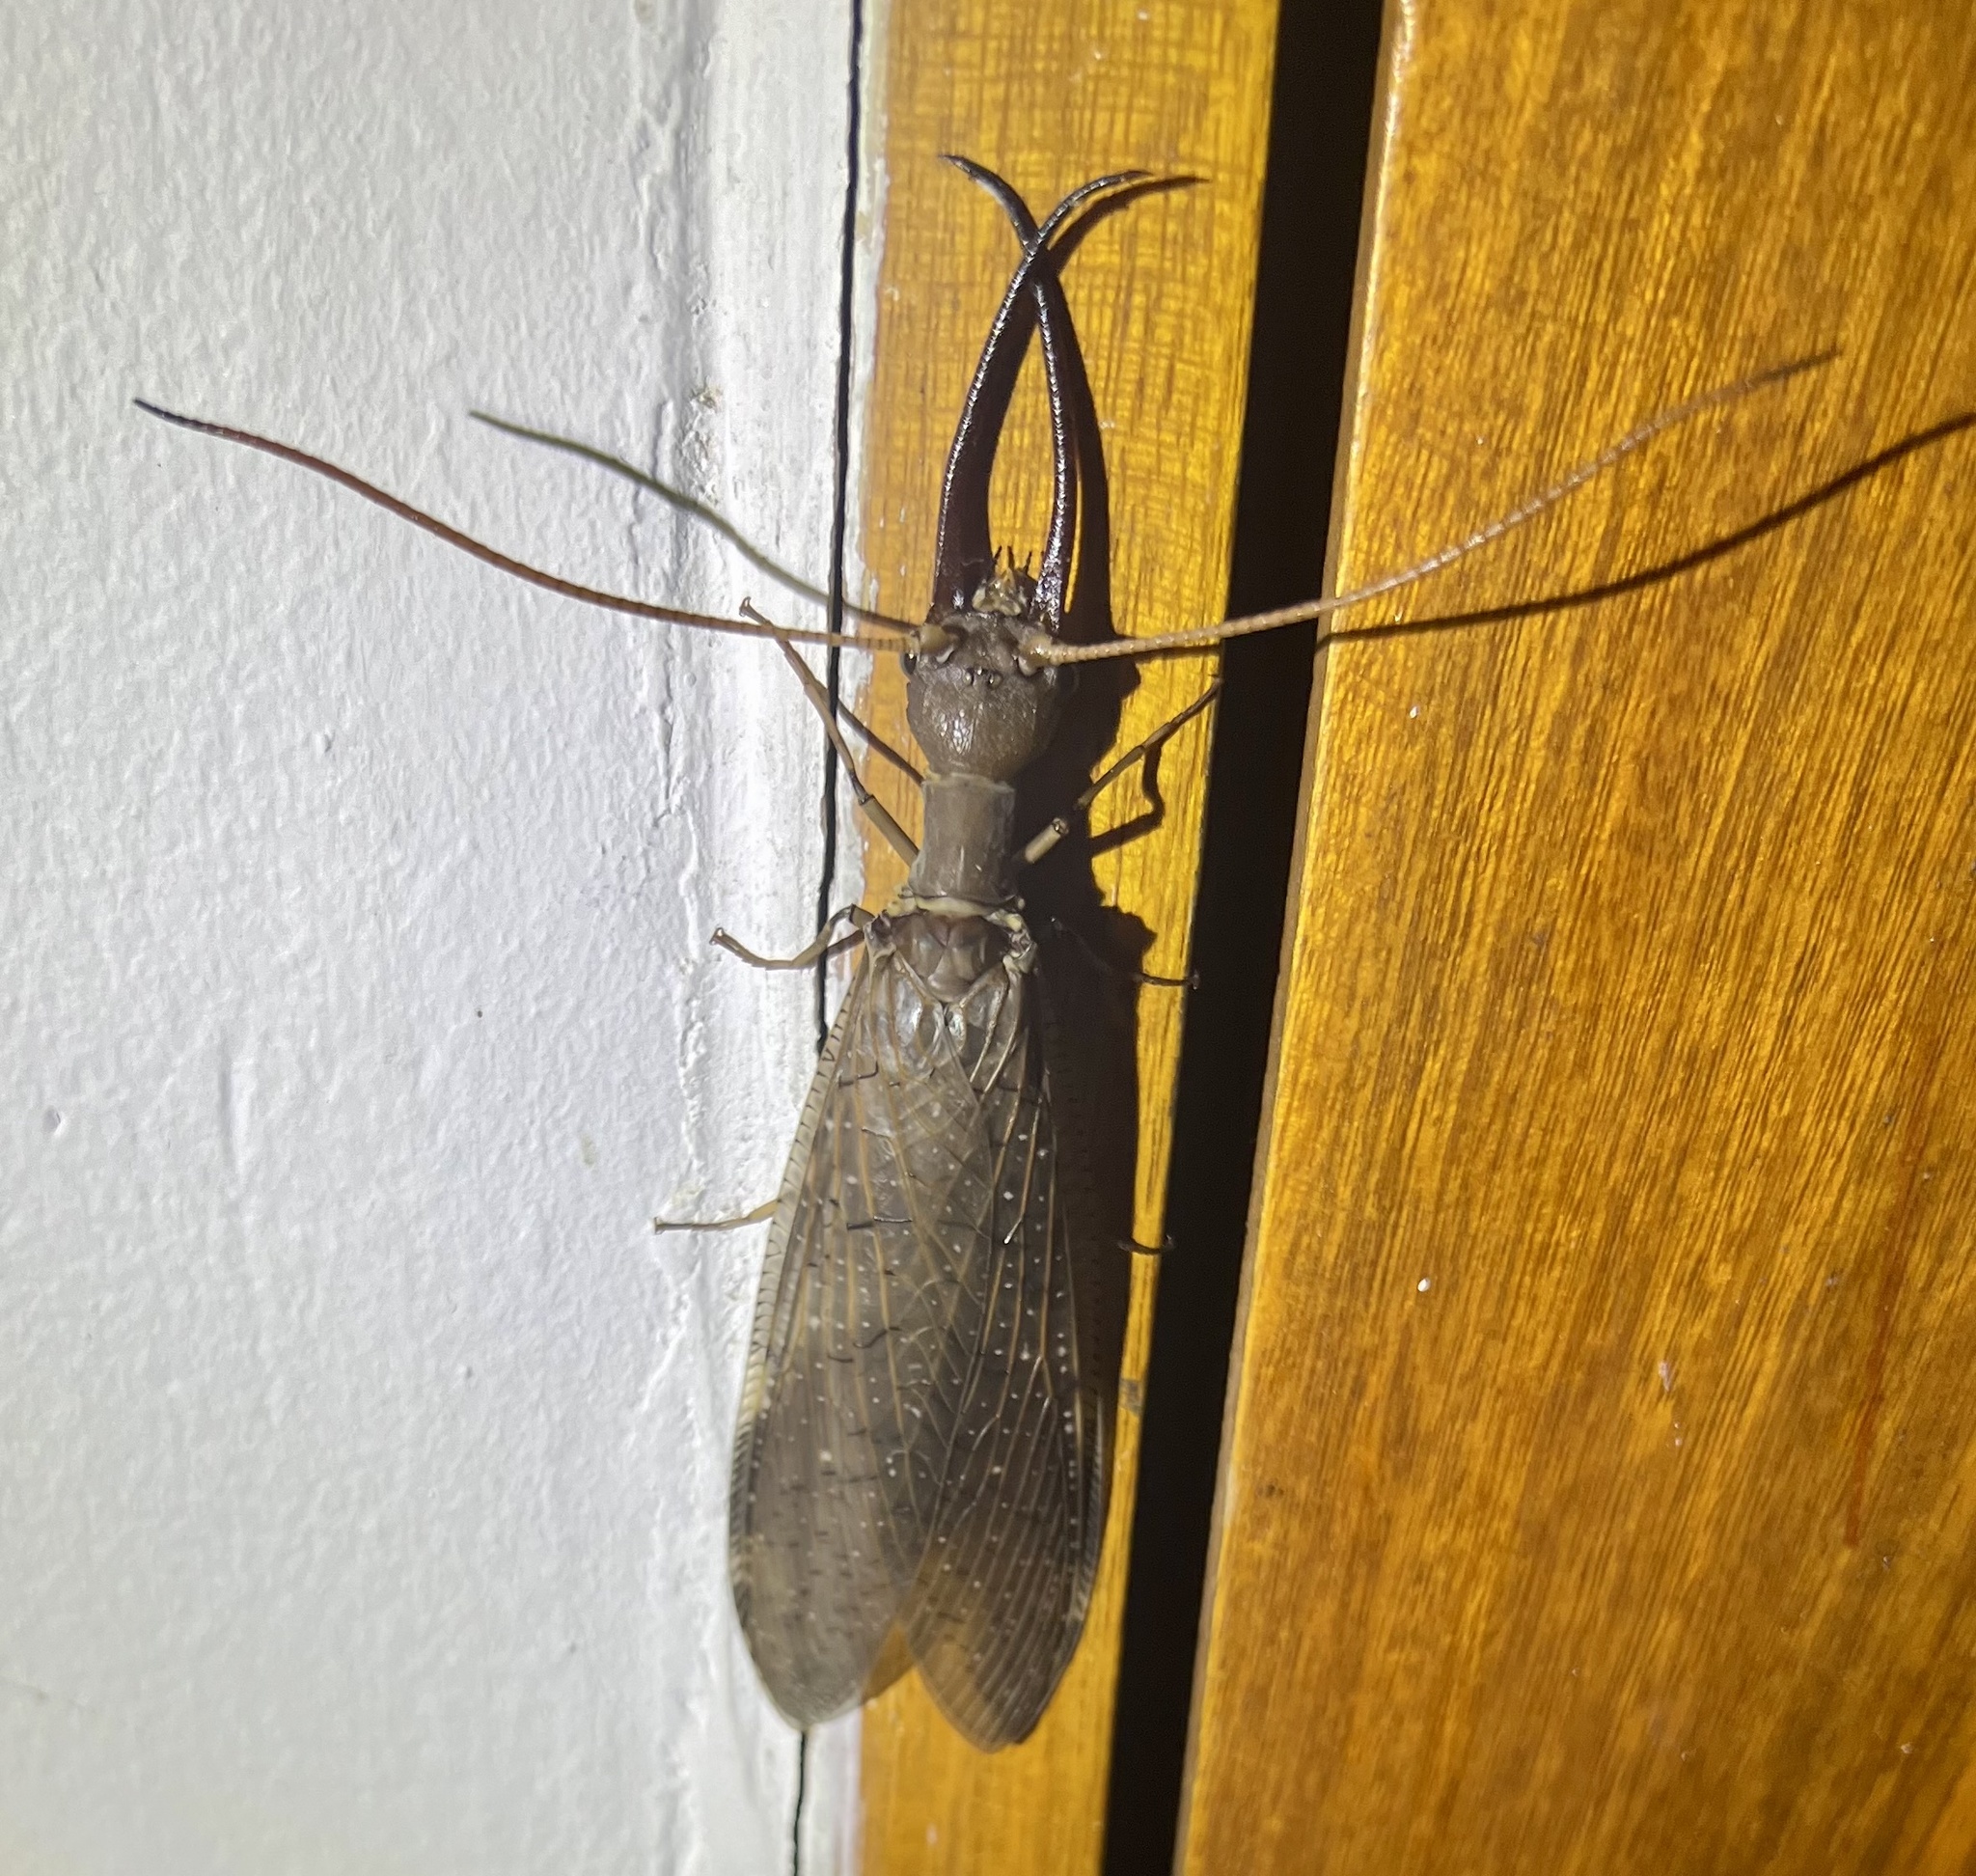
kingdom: Animalia
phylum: Arthropoda
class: Insecta
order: Megaloptera
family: Corydalidae
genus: Corydalus
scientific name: Corydalus peruvianus
